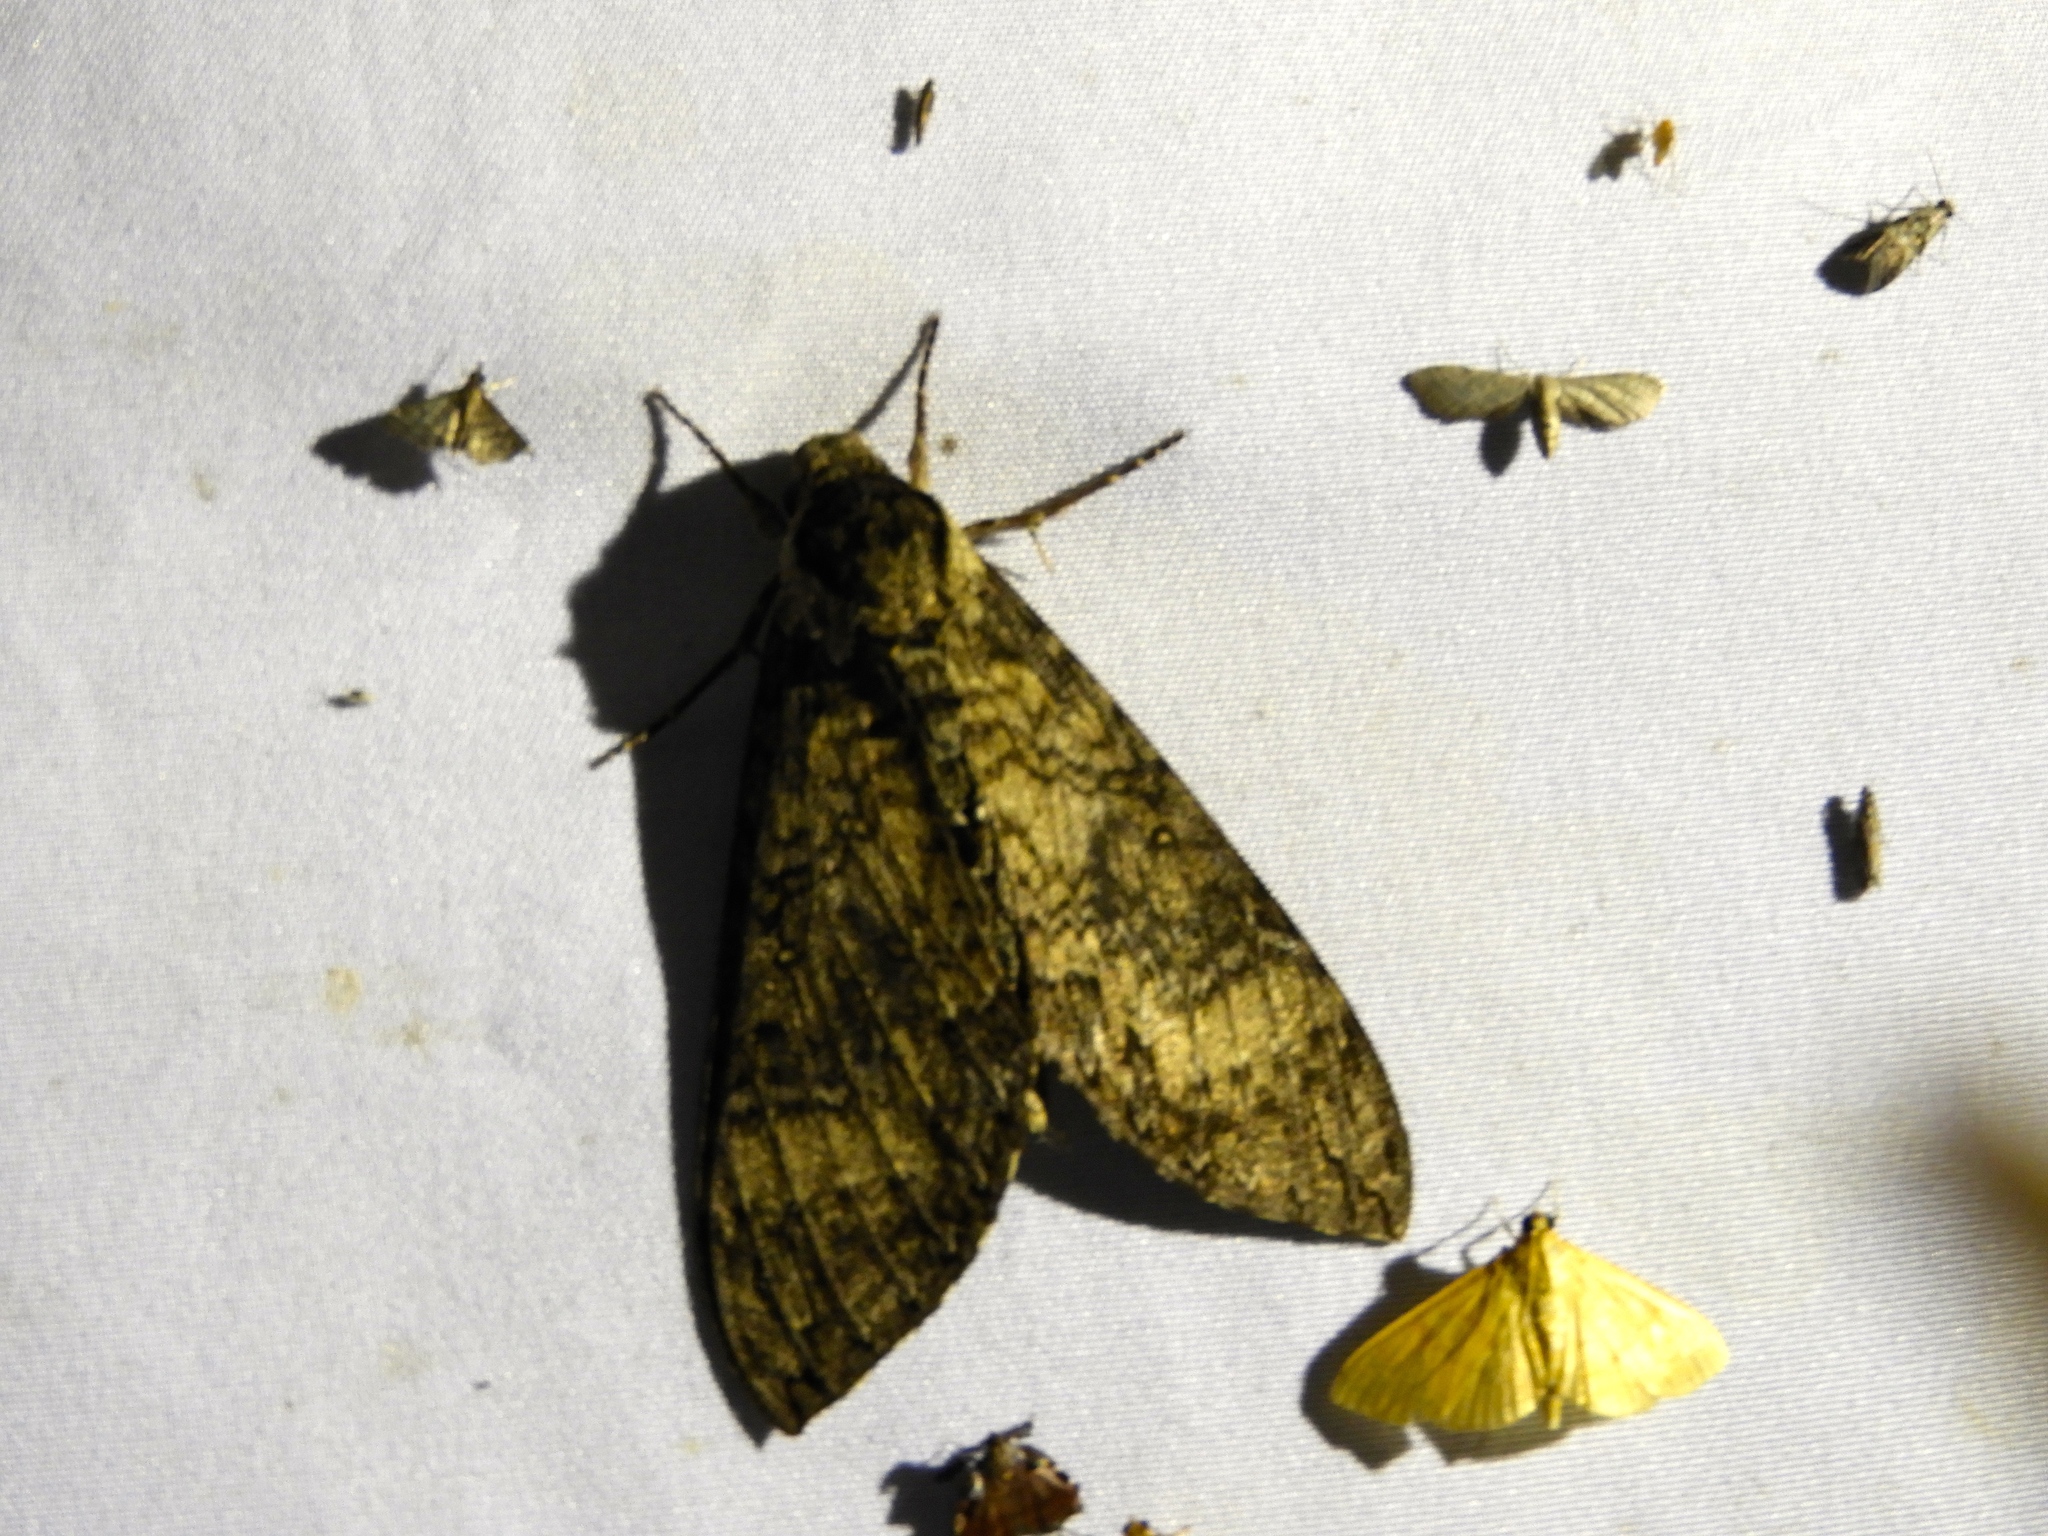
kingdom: Animalia
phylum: Arthropoda
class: Insecta
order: Lepidoptera
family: Sphingidae
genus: Manduca
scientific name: Manduca occulta
